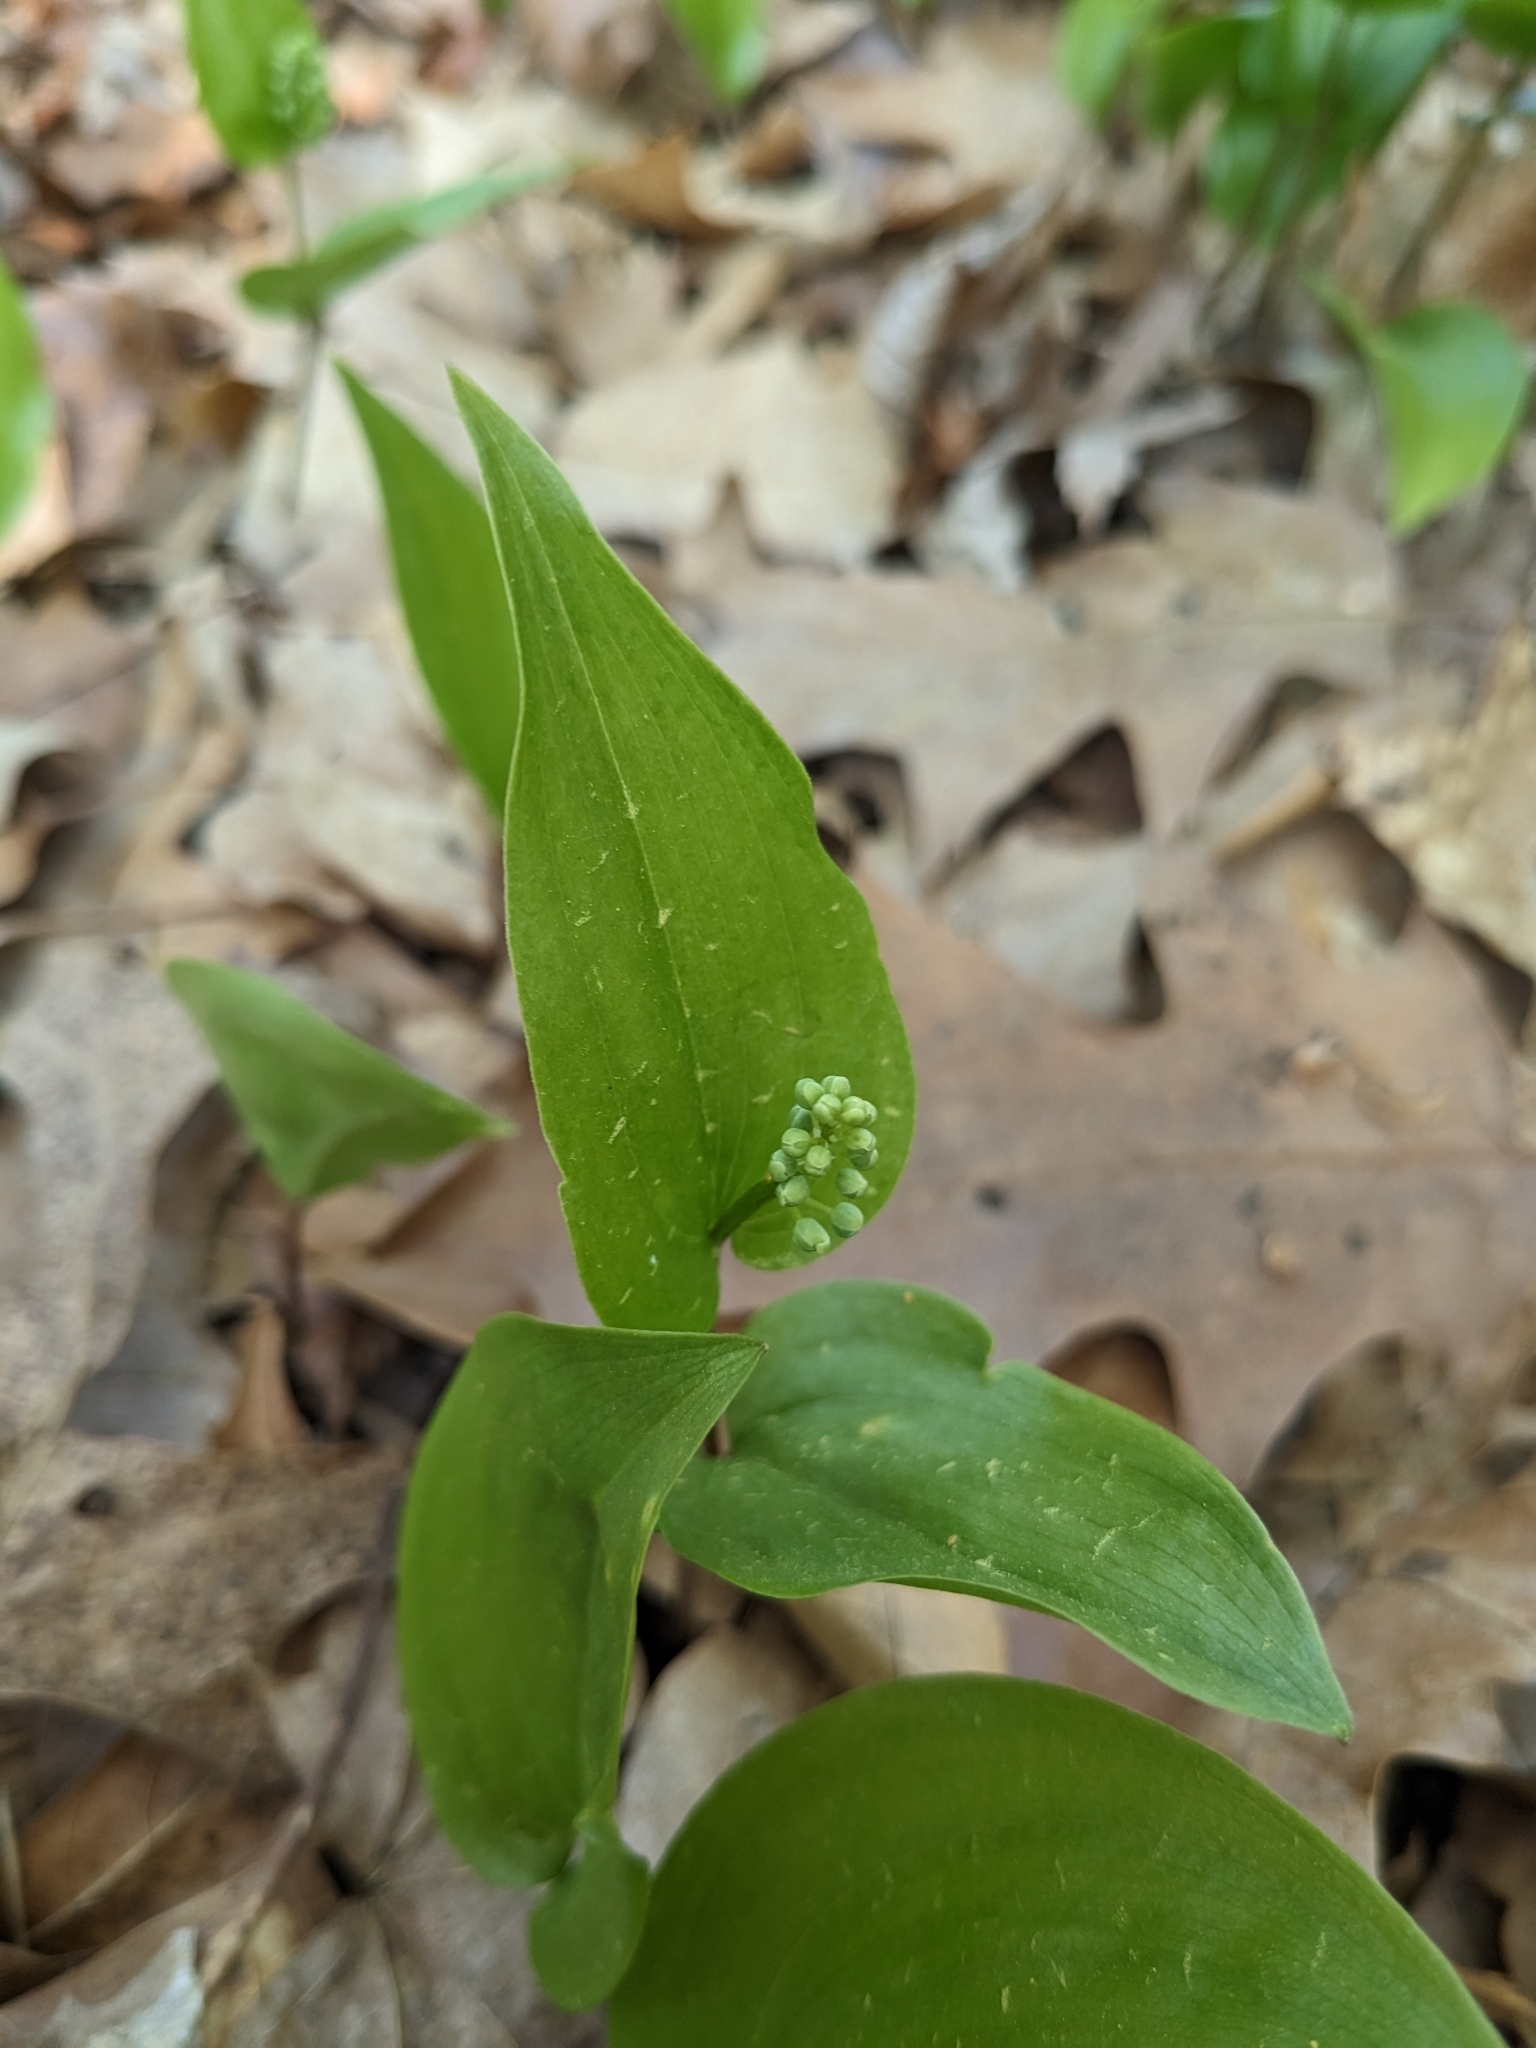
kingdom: Plantae
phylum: Tracheophyta
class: Liliopsida
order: Asparagales
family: Asparagaceae
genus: Maianthemum
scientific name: Maianthemum canadense
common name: False lily-of-the-valley
